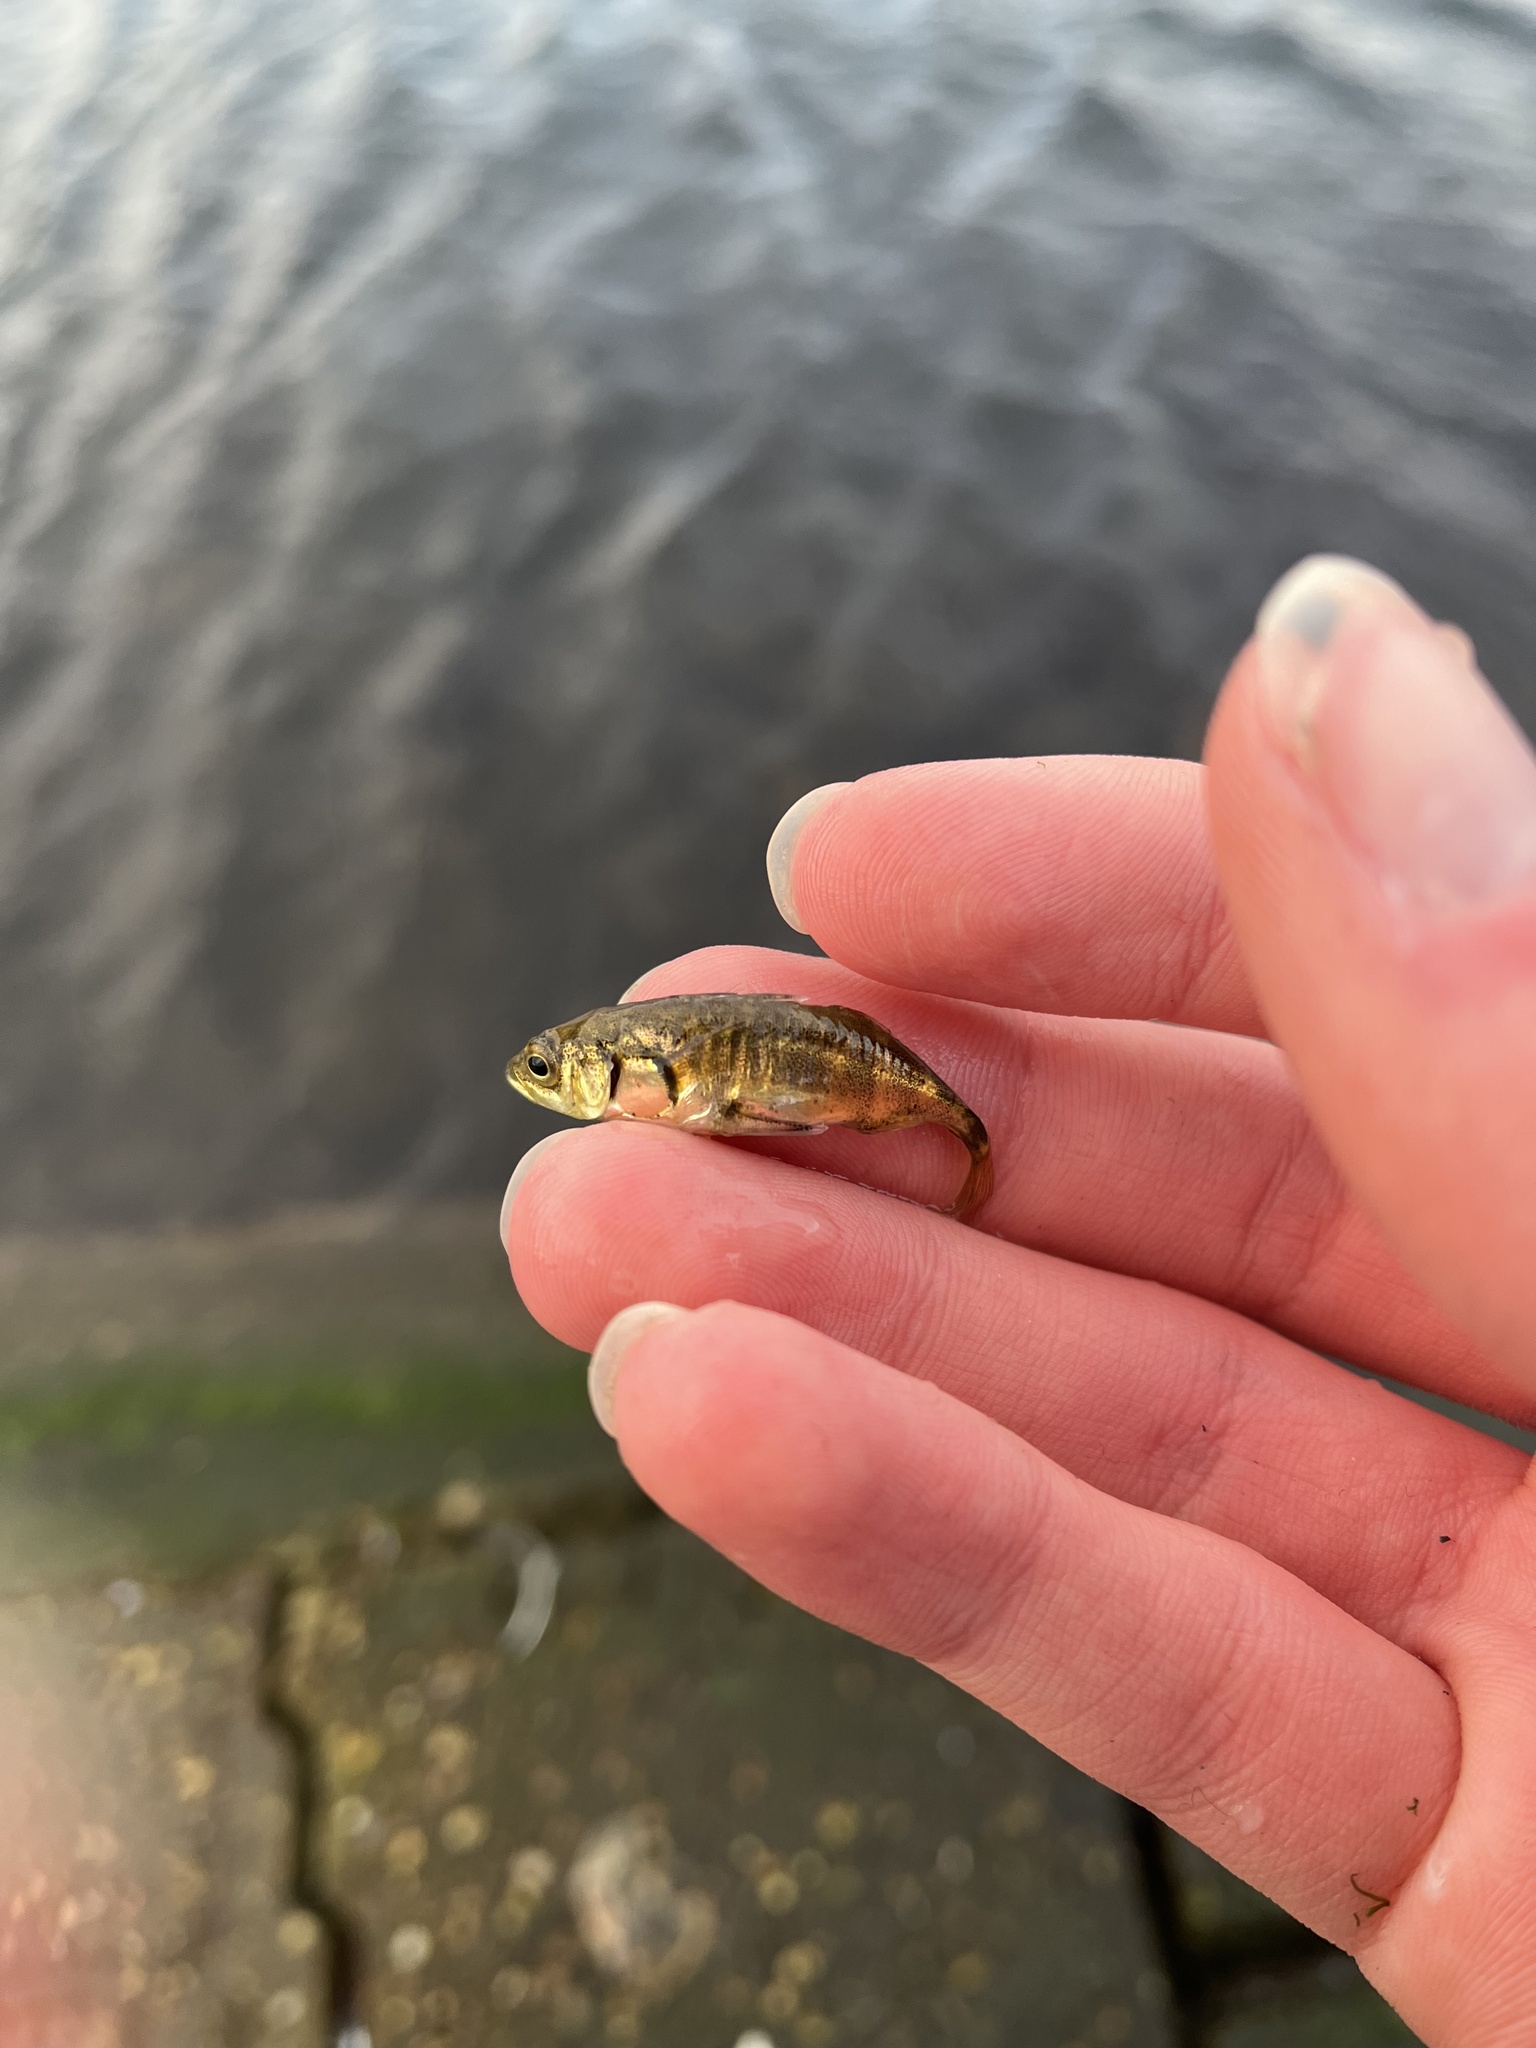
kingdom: Animalia
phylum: Chordata
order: Gasterosteiformes
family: Gasterosteidae
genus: Gasterosteus
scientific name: Gasterosteus aculeatus
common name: Three-spined stickleback
